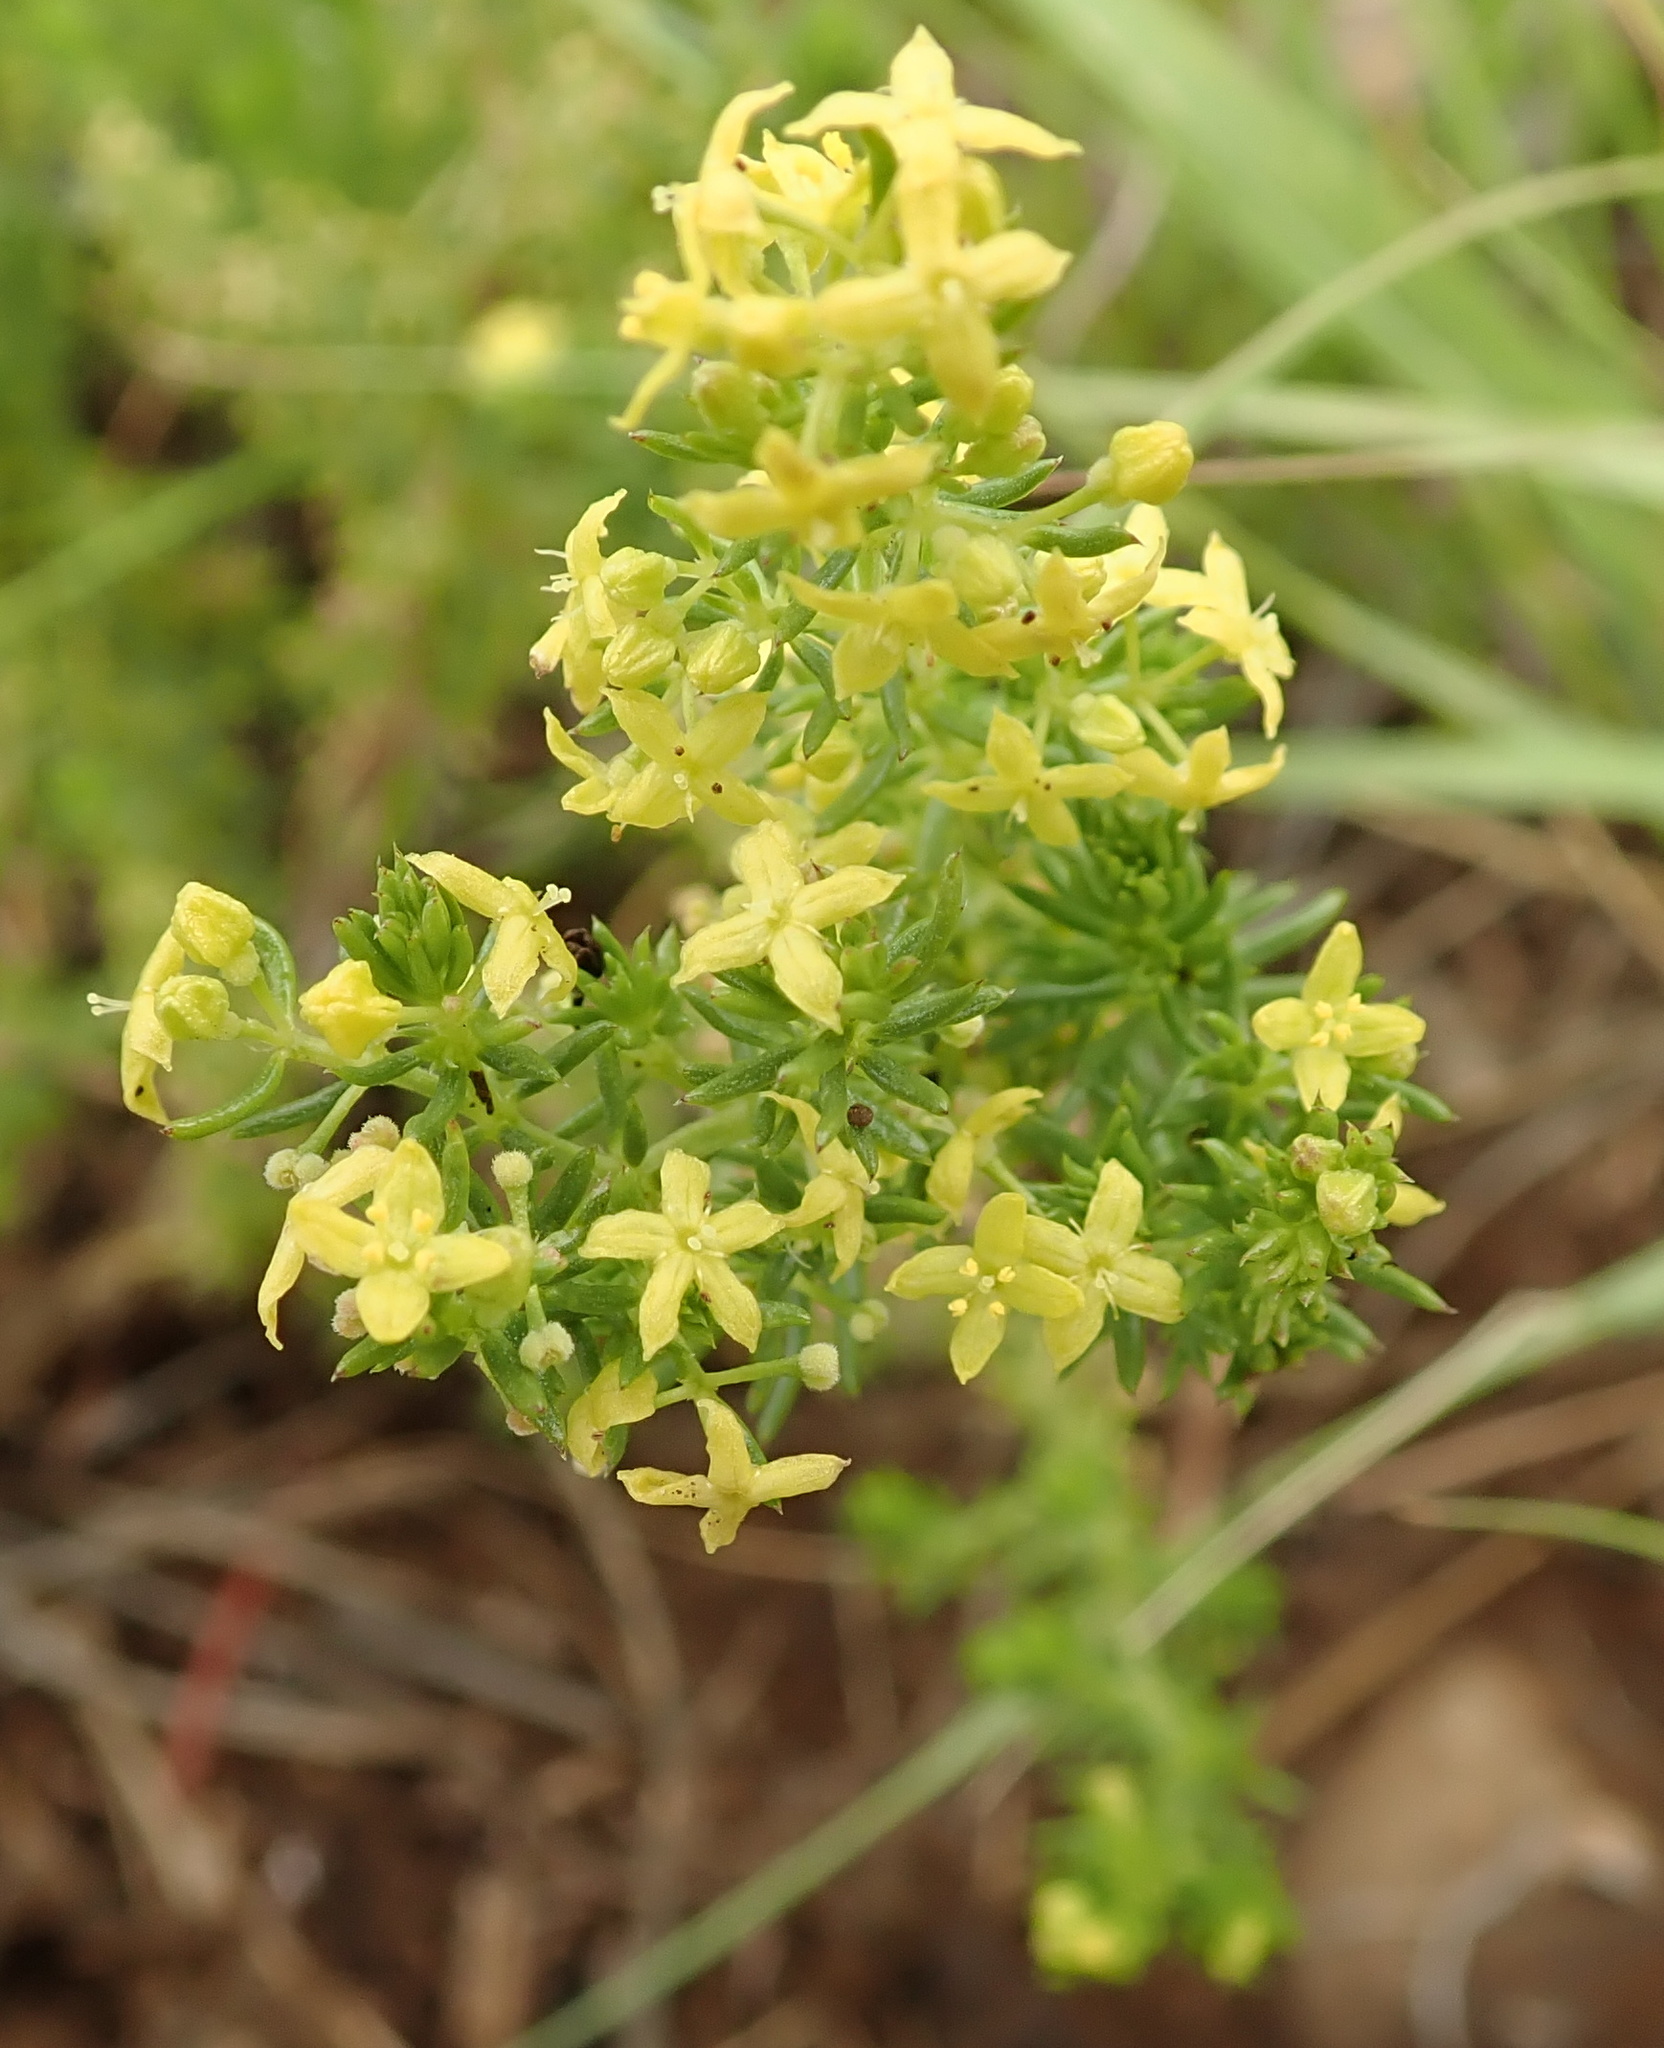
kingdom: Plantae
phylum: Tracheophyta
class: Magnoliopsida
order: Gentianales
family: Rubiaceae
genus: Galium
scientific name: Galium capense
